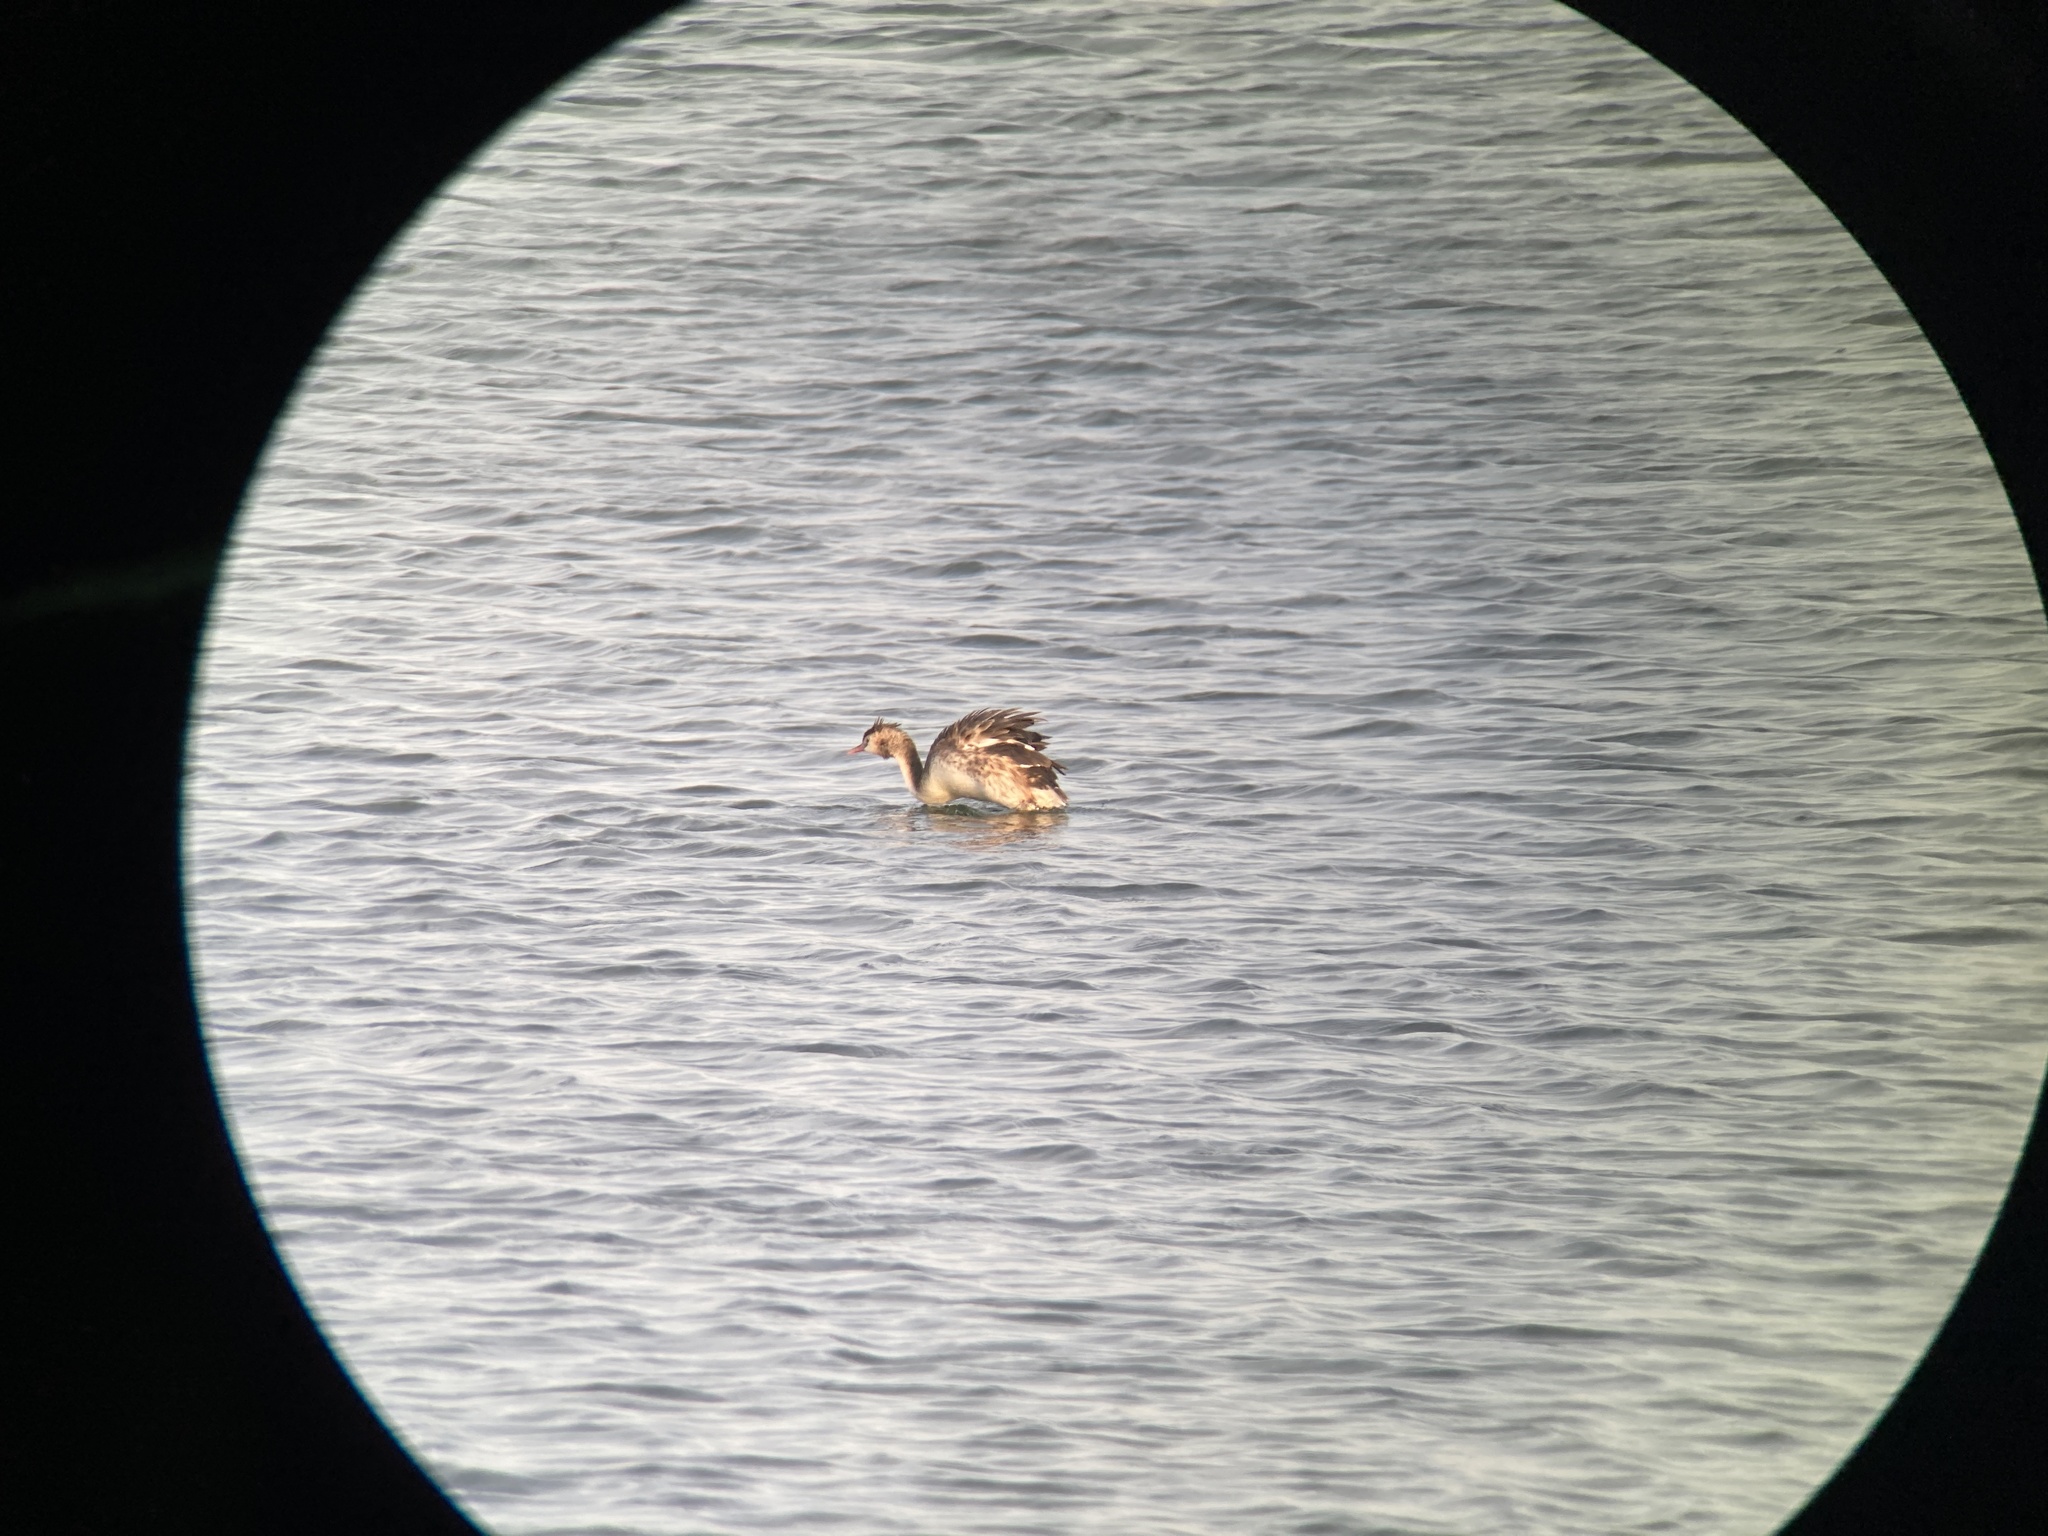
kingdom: Animalia
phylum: Chordata
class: Aves
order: Podicipediformes
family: Podicipedidae
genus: Podiceps
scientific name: Podiceps cristatus
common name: Great crested grebe
